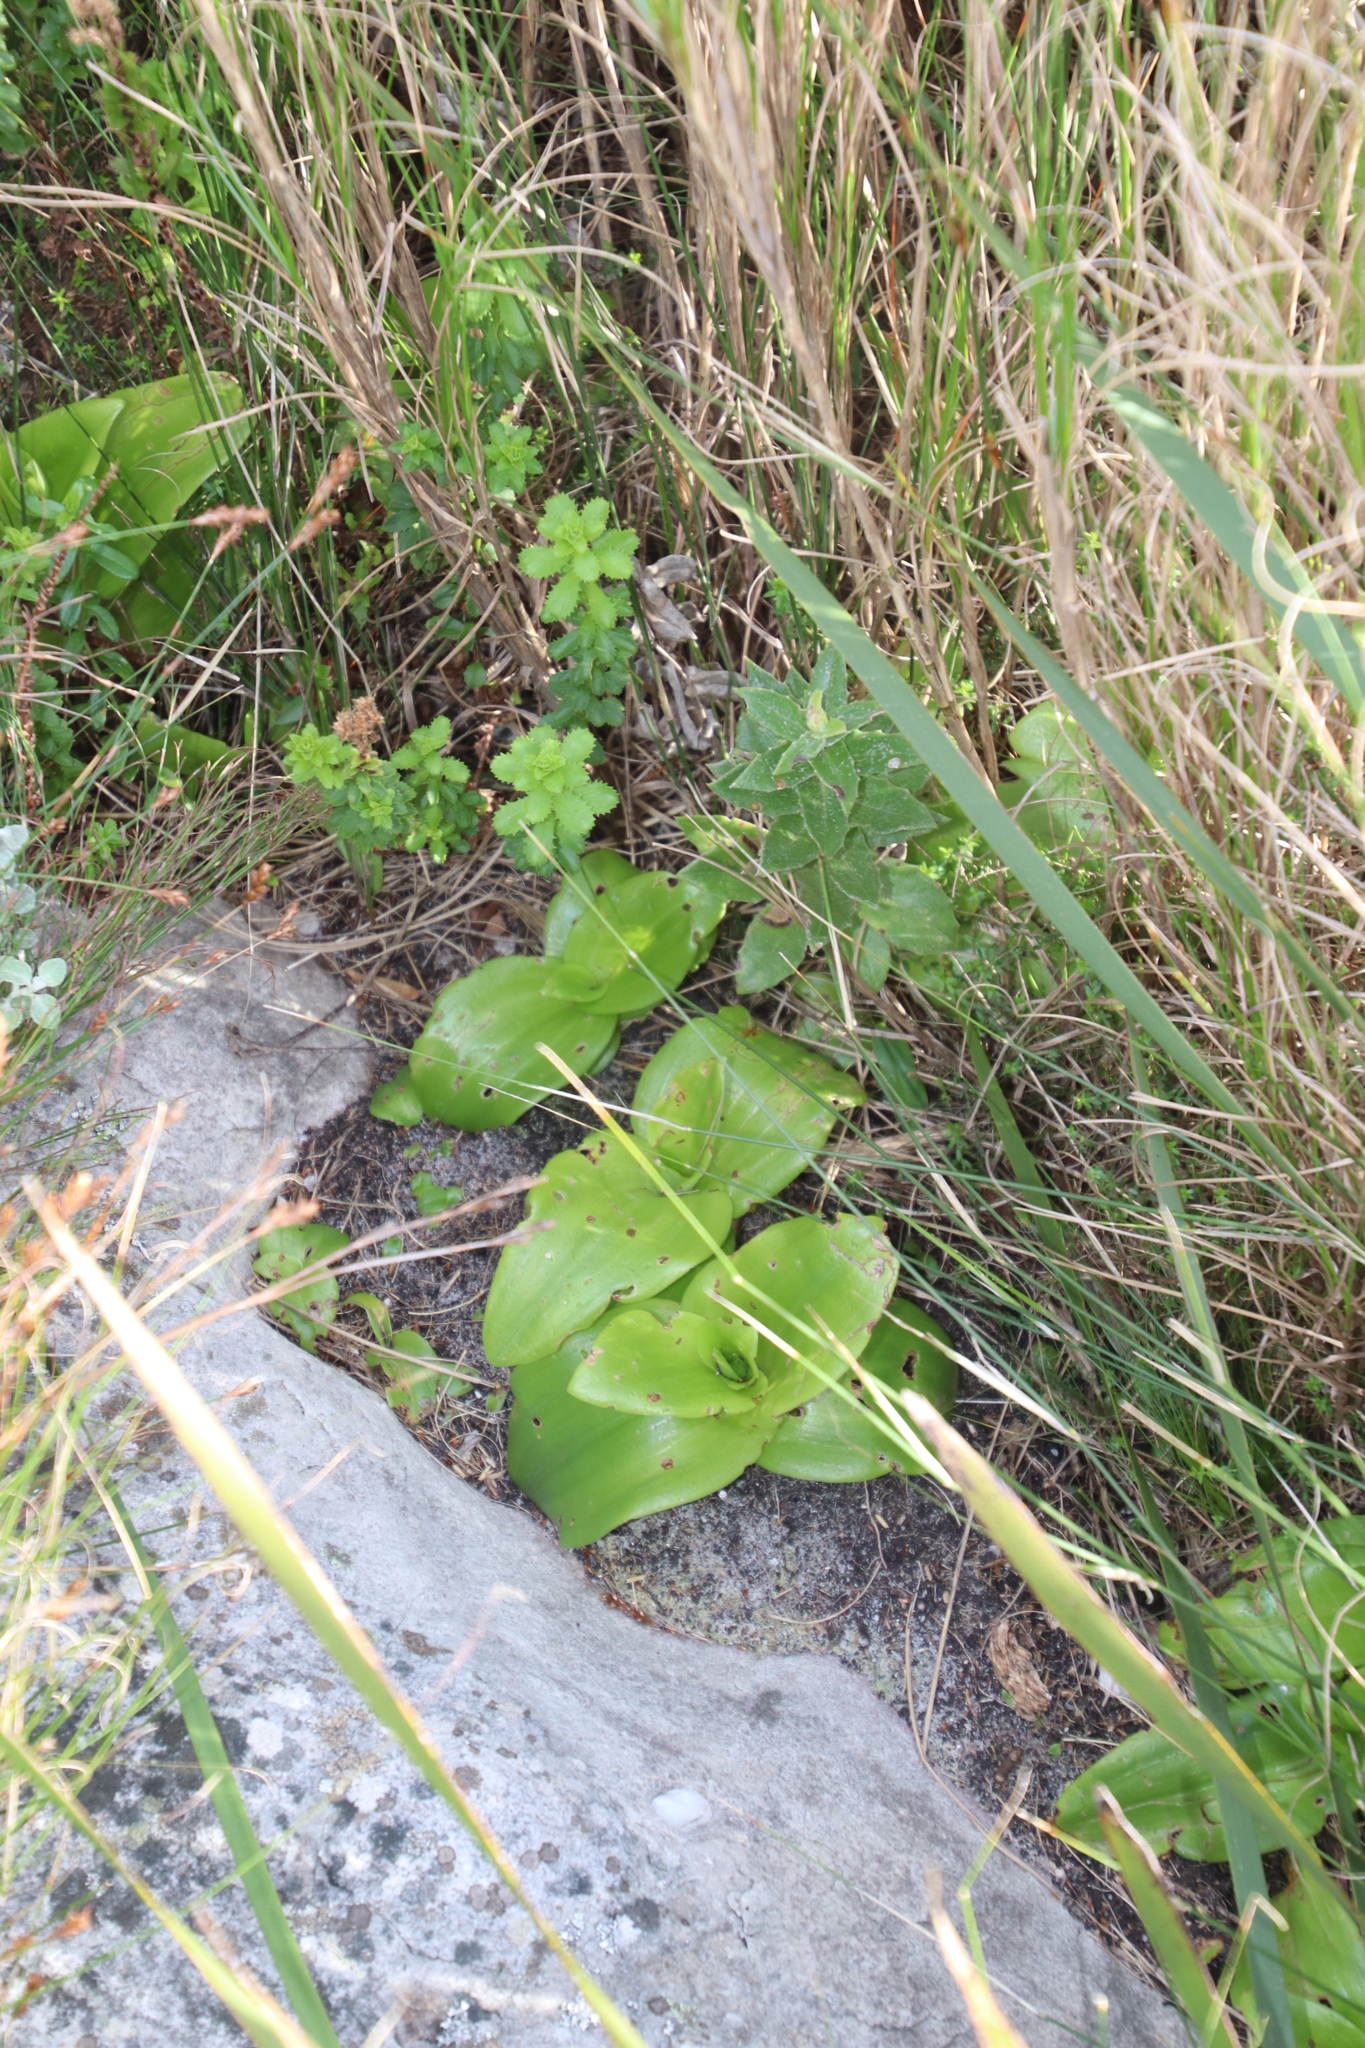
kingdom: Plantae
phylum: Tracheophyta
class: Liliopsida
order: Asparagales
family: Orchidaceae
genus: Satyrium
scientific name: Satyrium odorum
